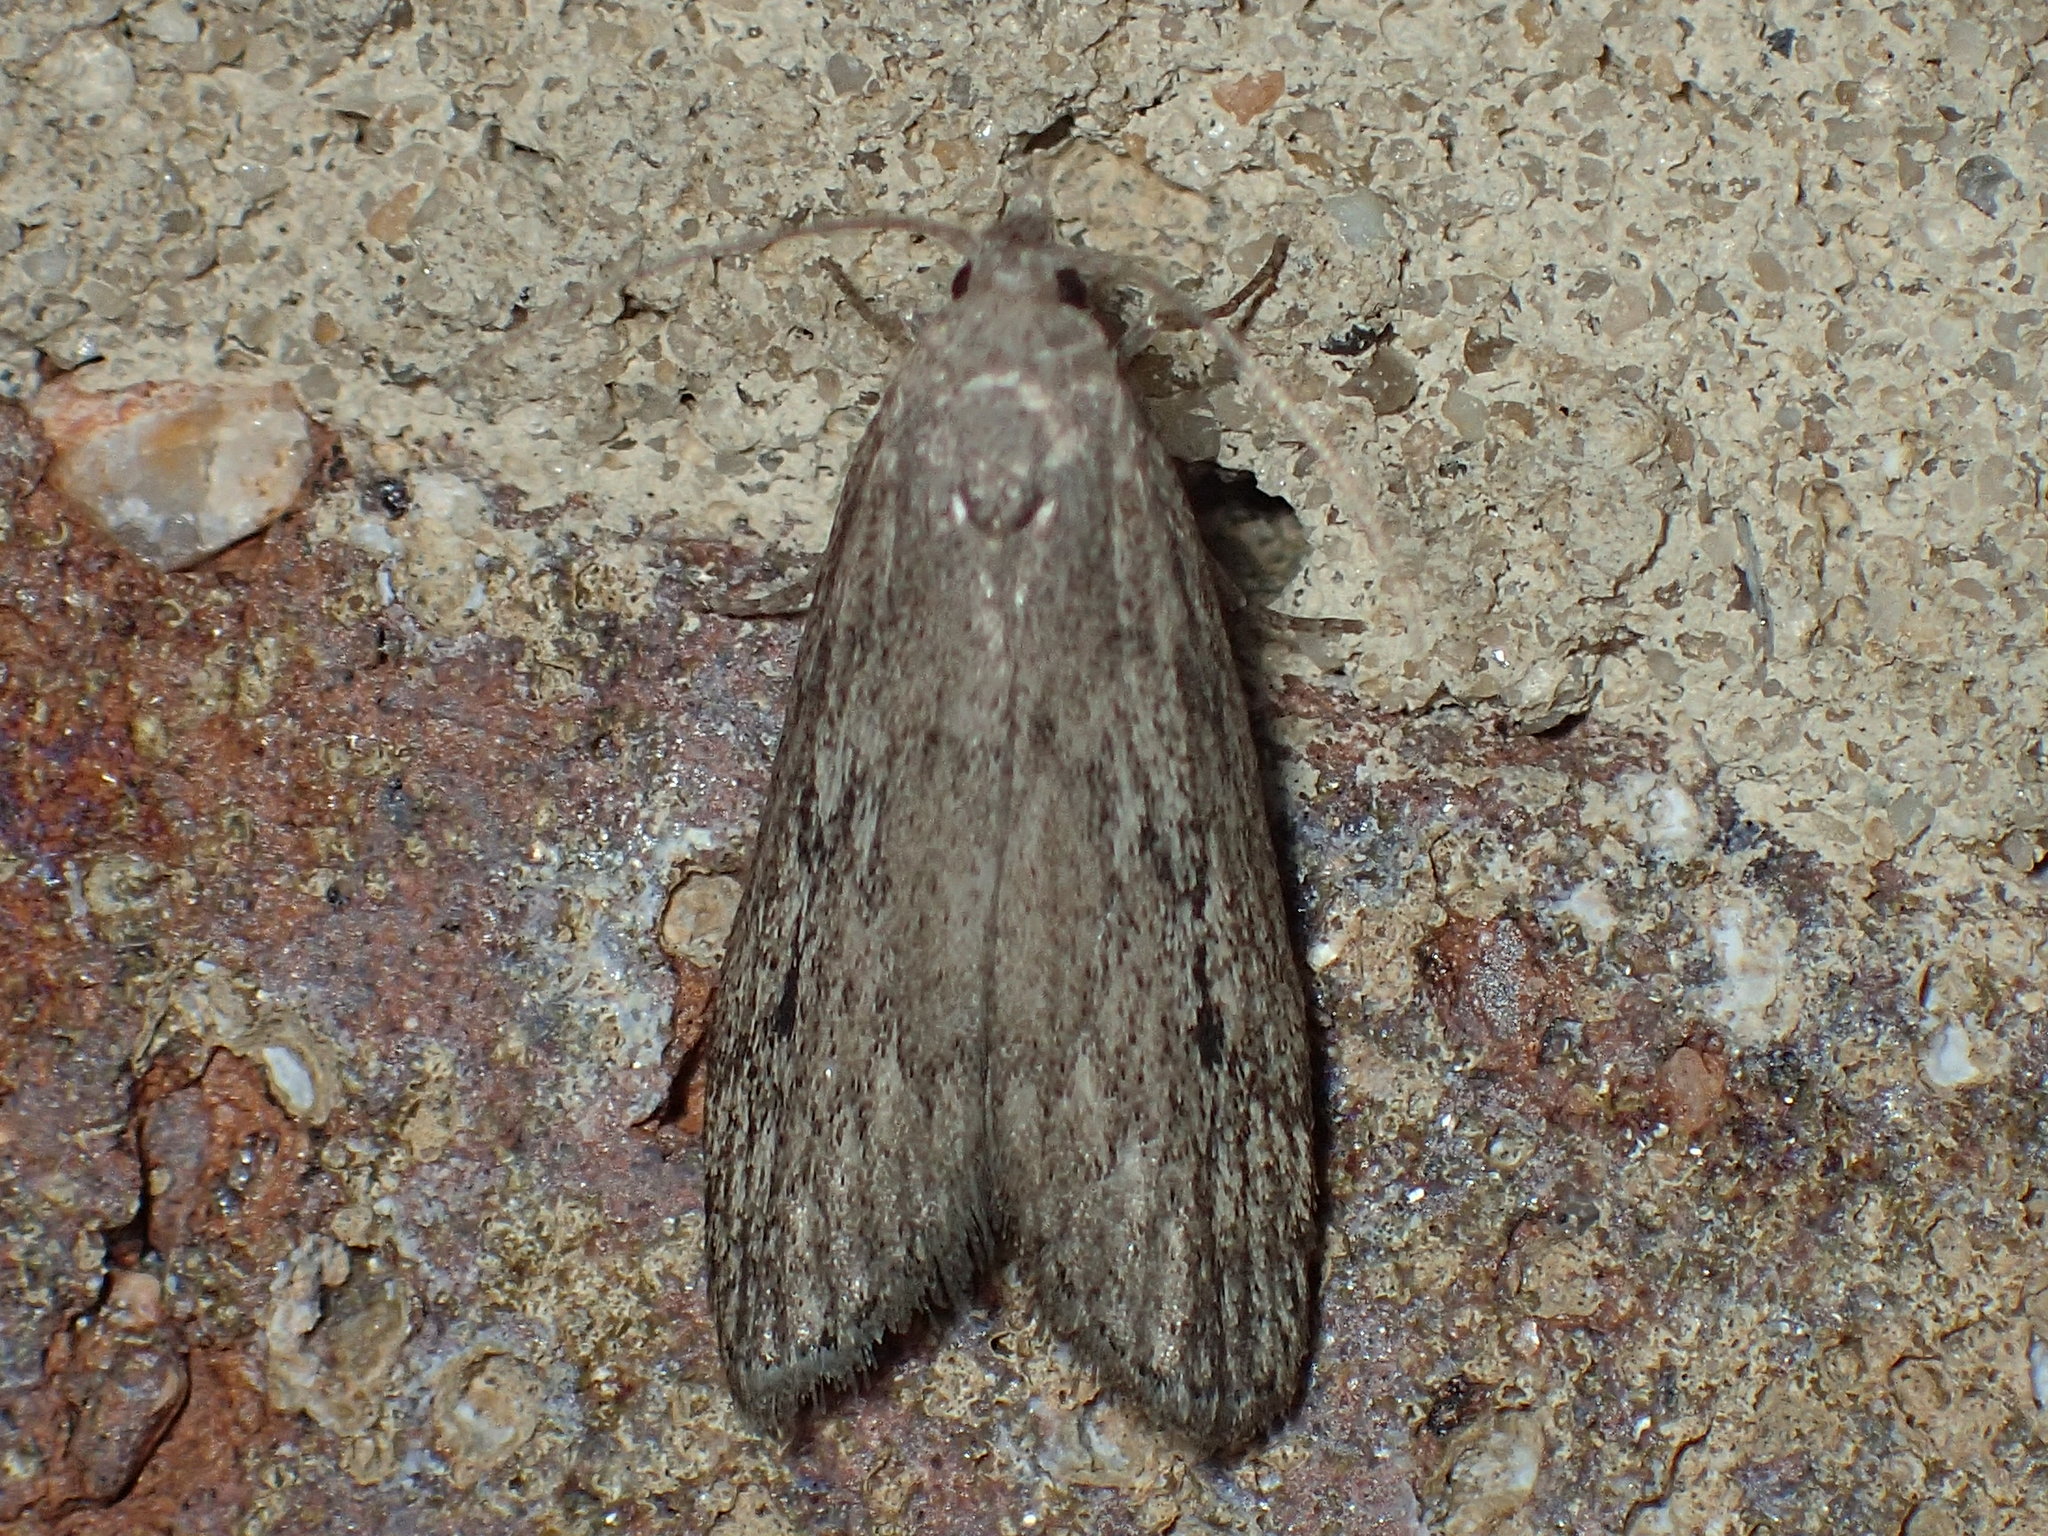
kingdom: Animalia
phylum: Arthropoda
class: Insecta
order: Lepidoptera
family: Pyralidae
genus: Aphomia
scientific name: Aphomia terrenella
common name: Terrenella bee moth
